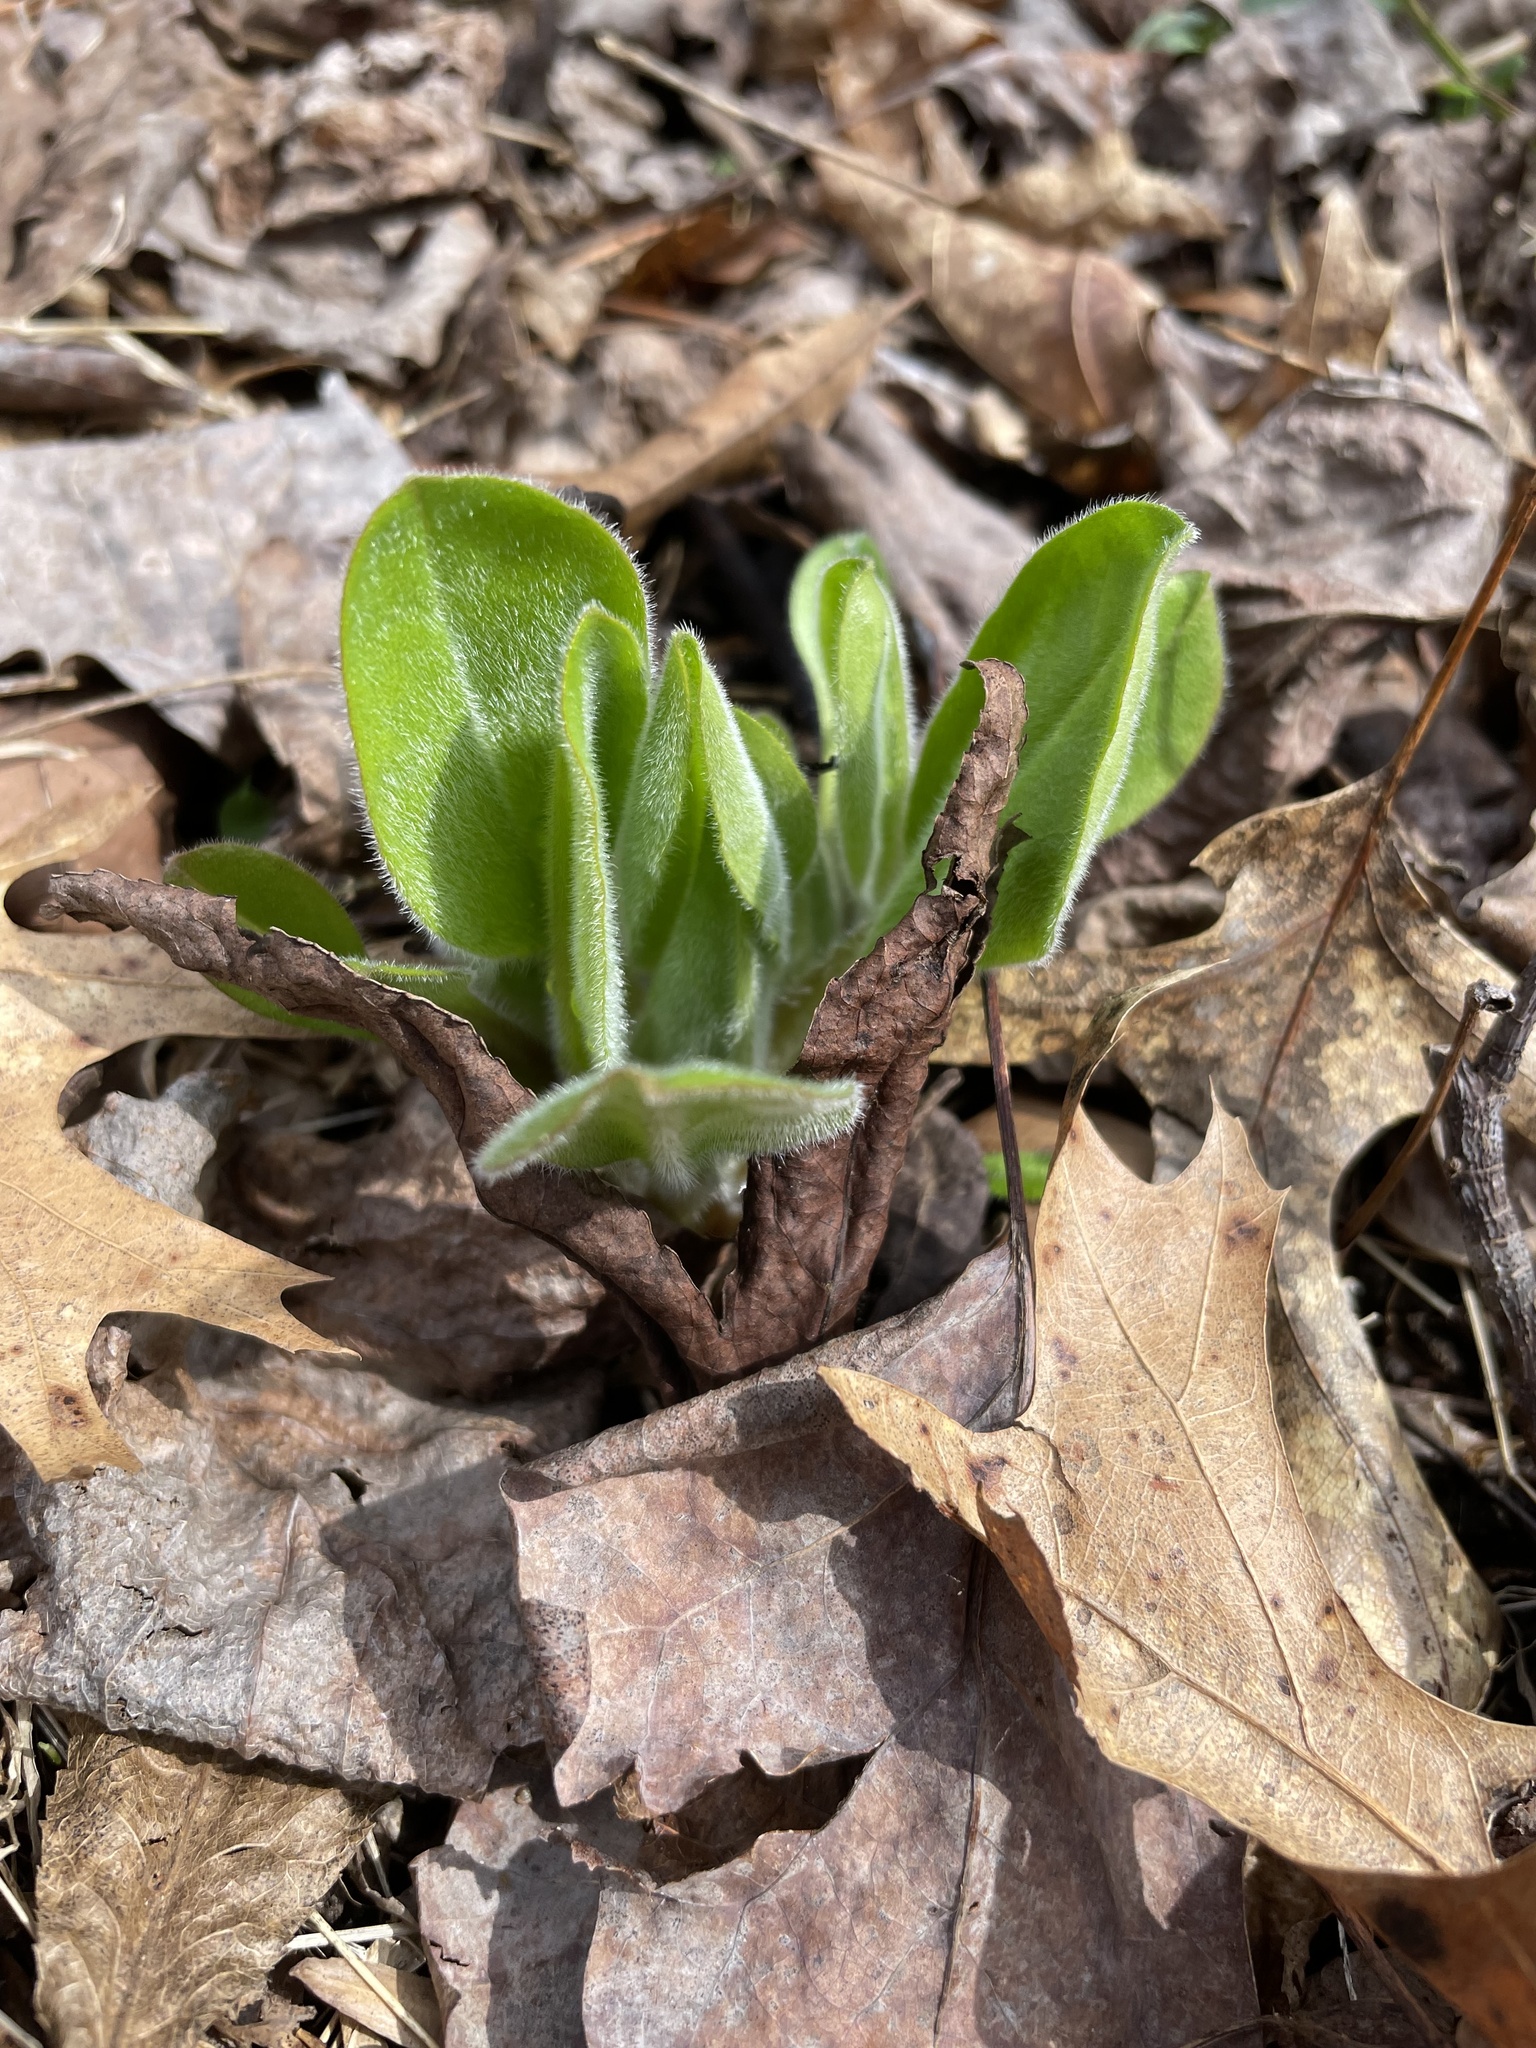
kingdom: Plantae
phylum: Tracheophyta
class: Magnoliopsida
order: Boraginales
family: Boraginaceae
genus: Andersonglossum
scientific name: Andersonglossum virginianum
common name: Wild comfrey
